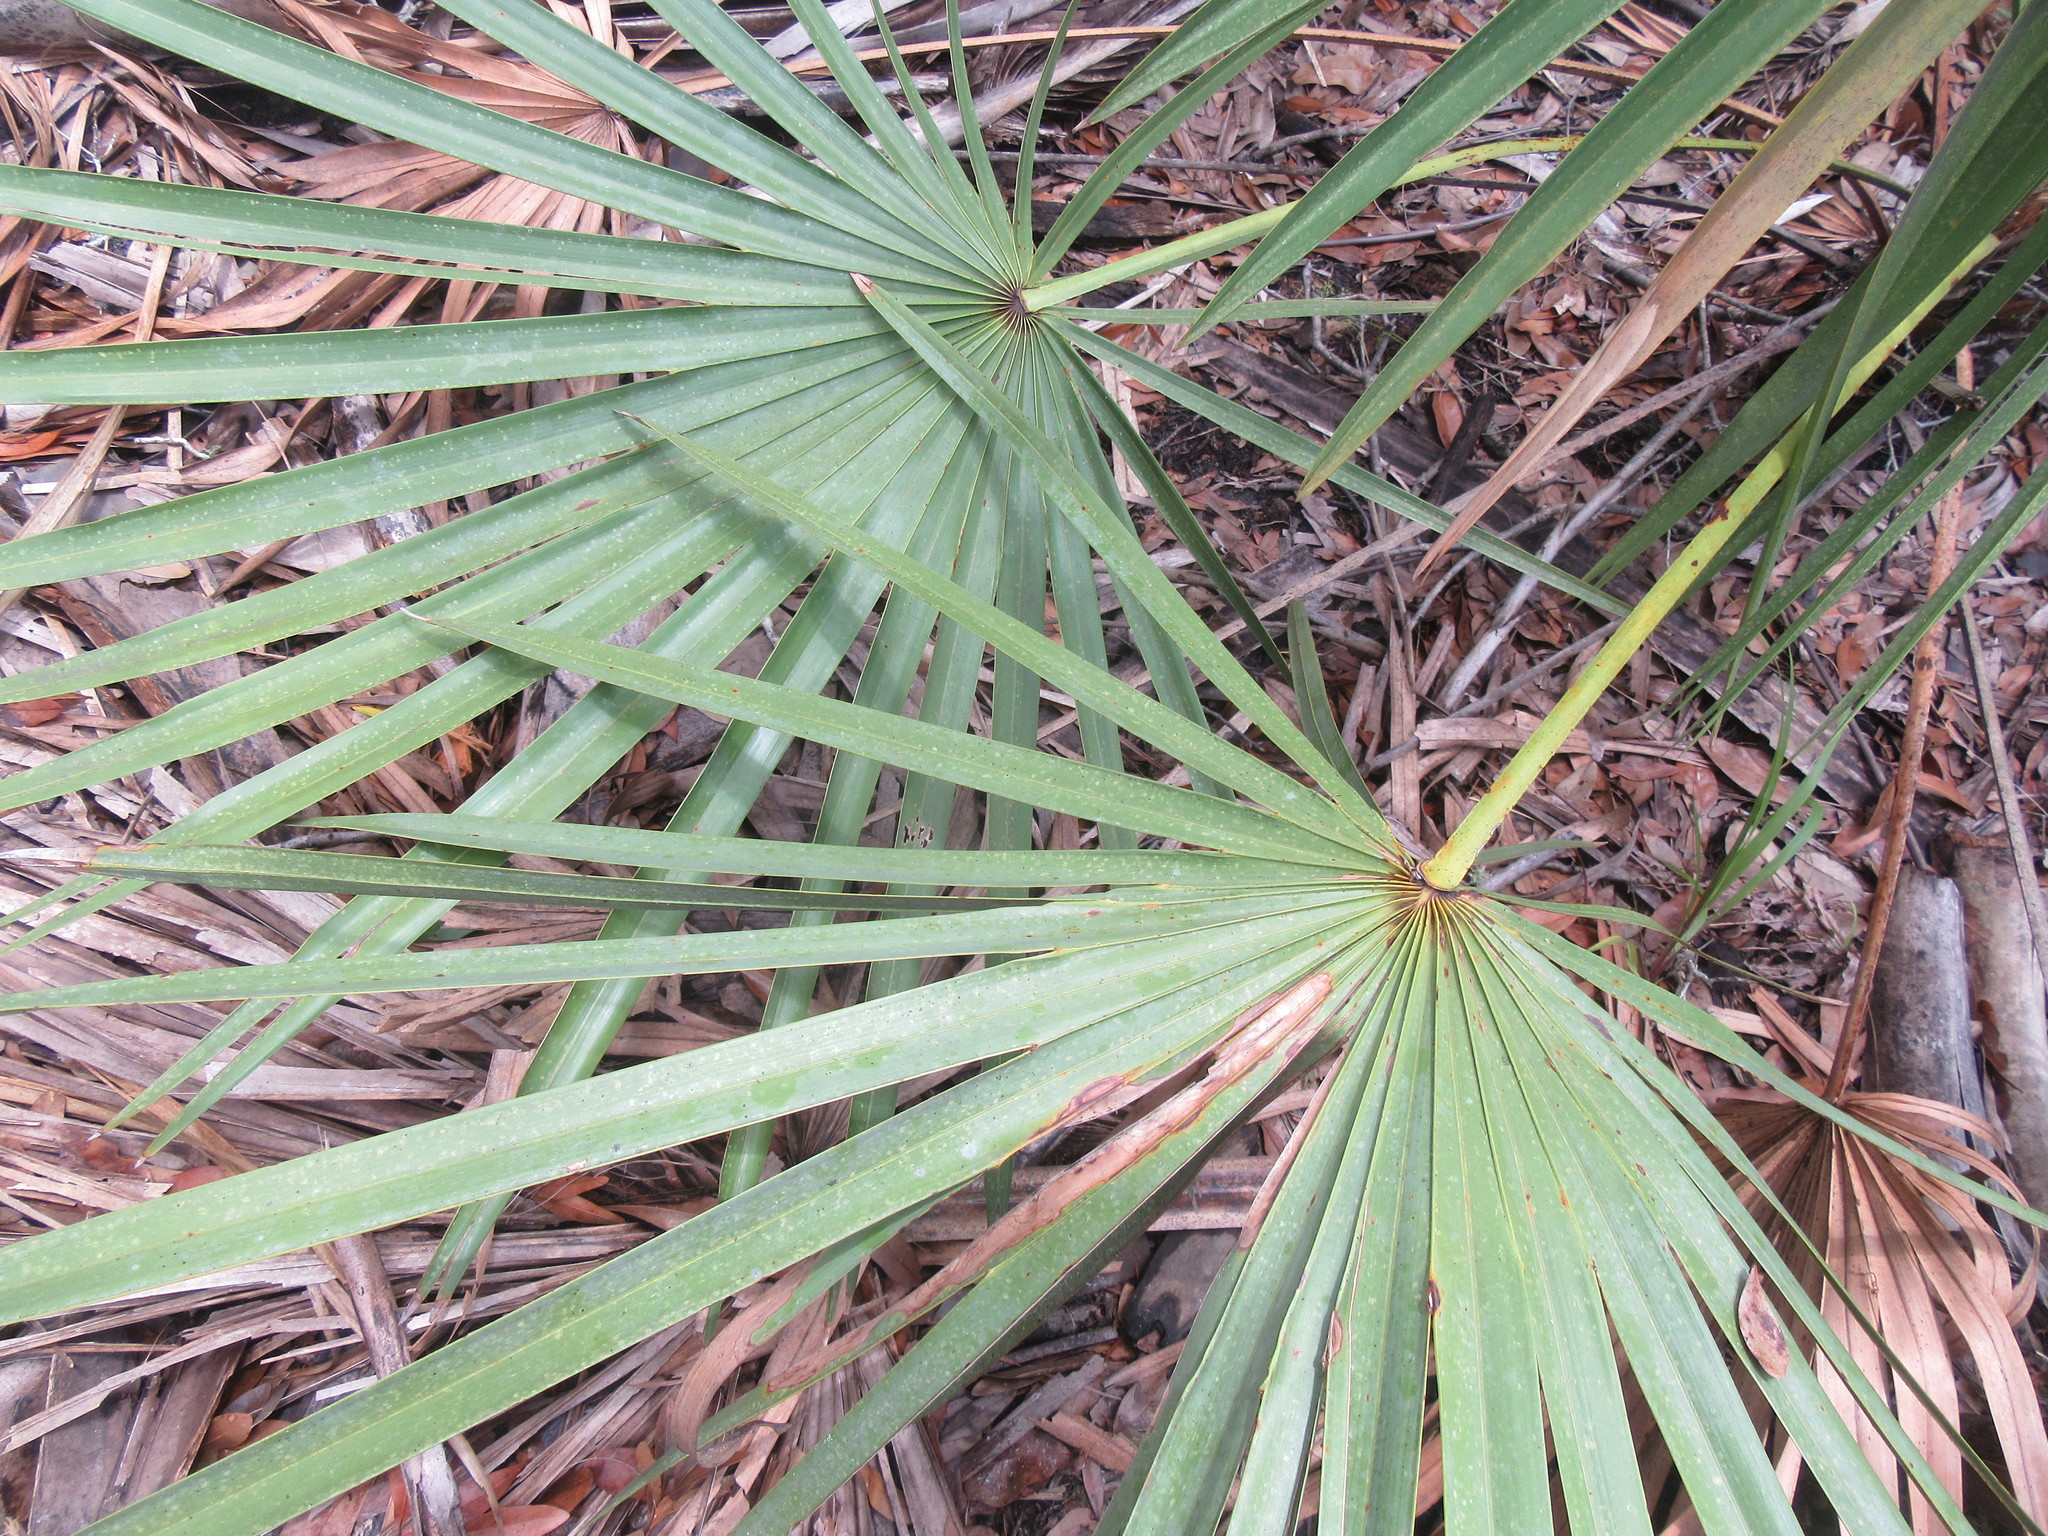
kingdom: Plantae
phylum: Tracheophyta
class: Liliopsida
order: Arecales
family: Arecaceae
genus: Serenoa
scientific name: Serenoa repens
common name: Saw-palmetto
